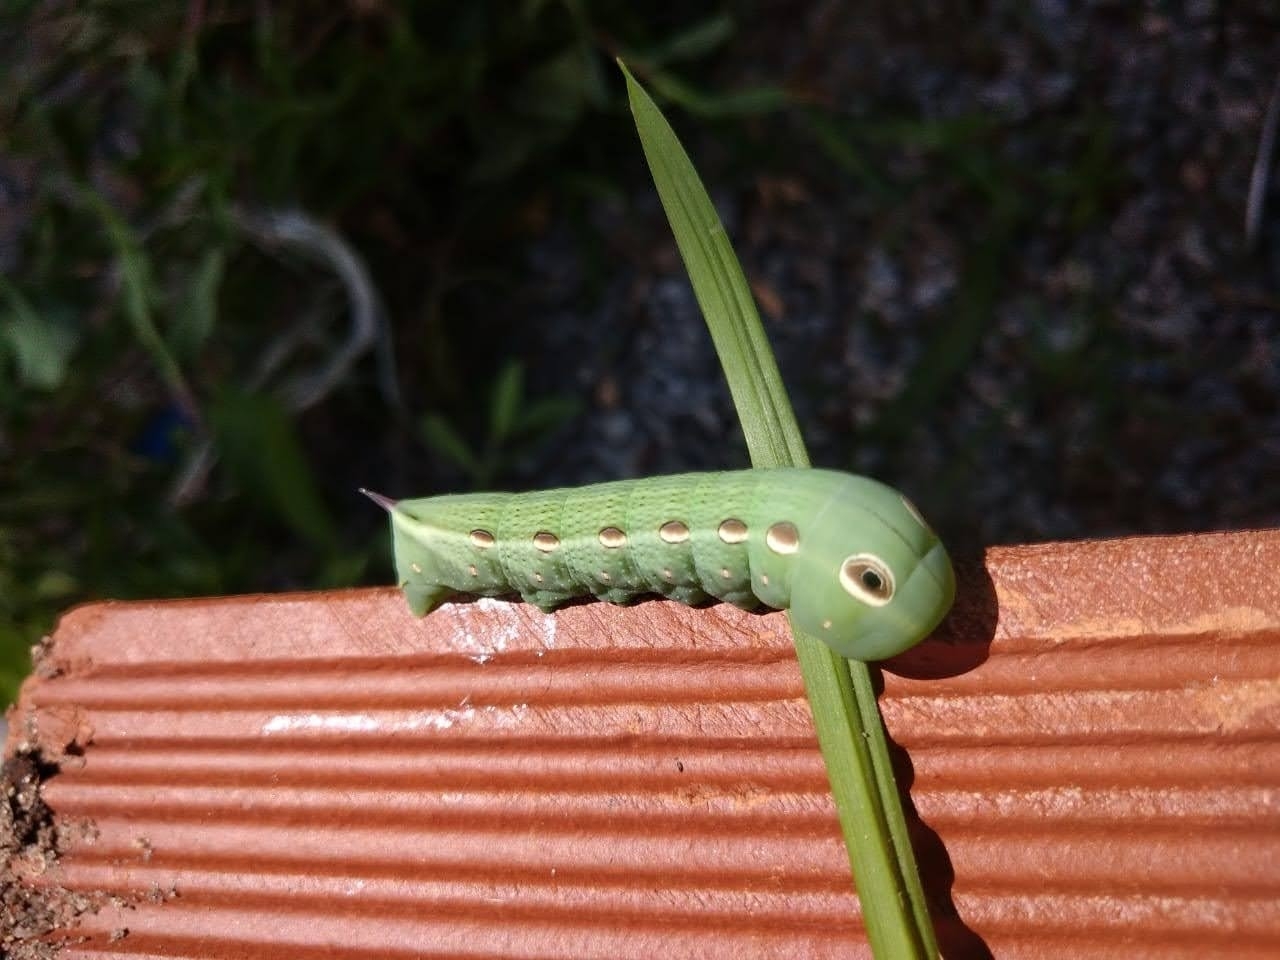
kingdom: Animalia
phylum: Arthropoda
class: Insecta
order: Lepidoptera
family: Sphingidae
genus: Xylophanes
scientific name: Xylophanes tersa
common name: Tersa sphinx
